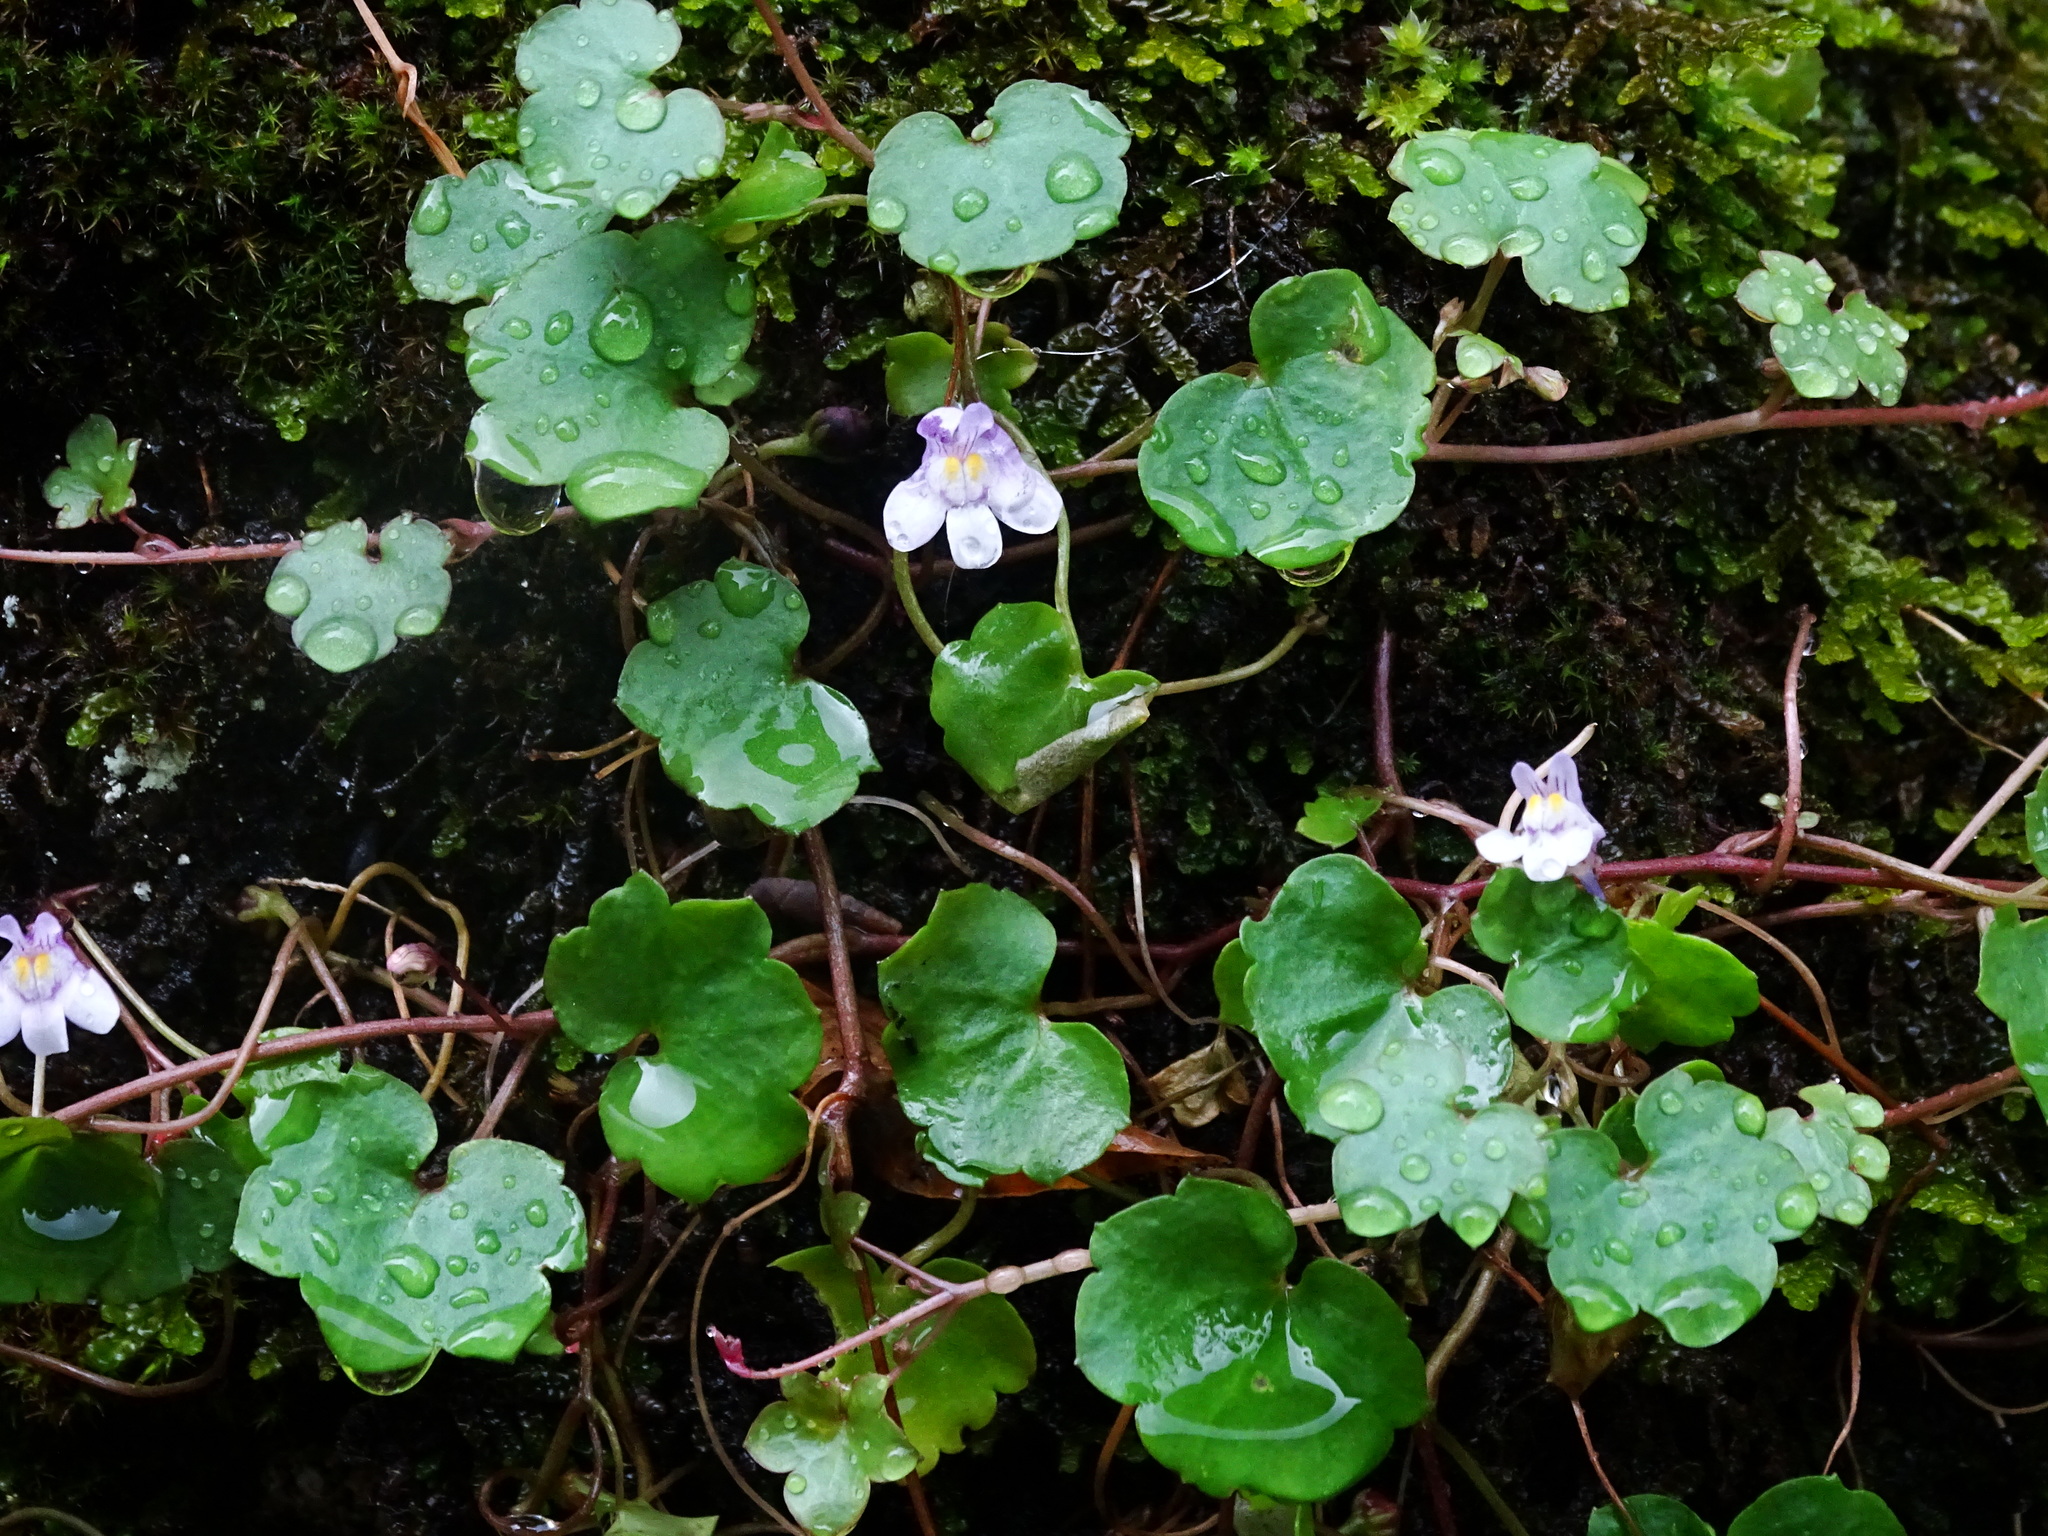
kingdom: Plantae
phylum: Tracheophyta
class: Magnoliopsida
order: Lamiales
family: Plantaginaceae
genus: Cymbalaria
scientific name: Cymbalaria muralis
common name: Ivy-leaved toadflax
